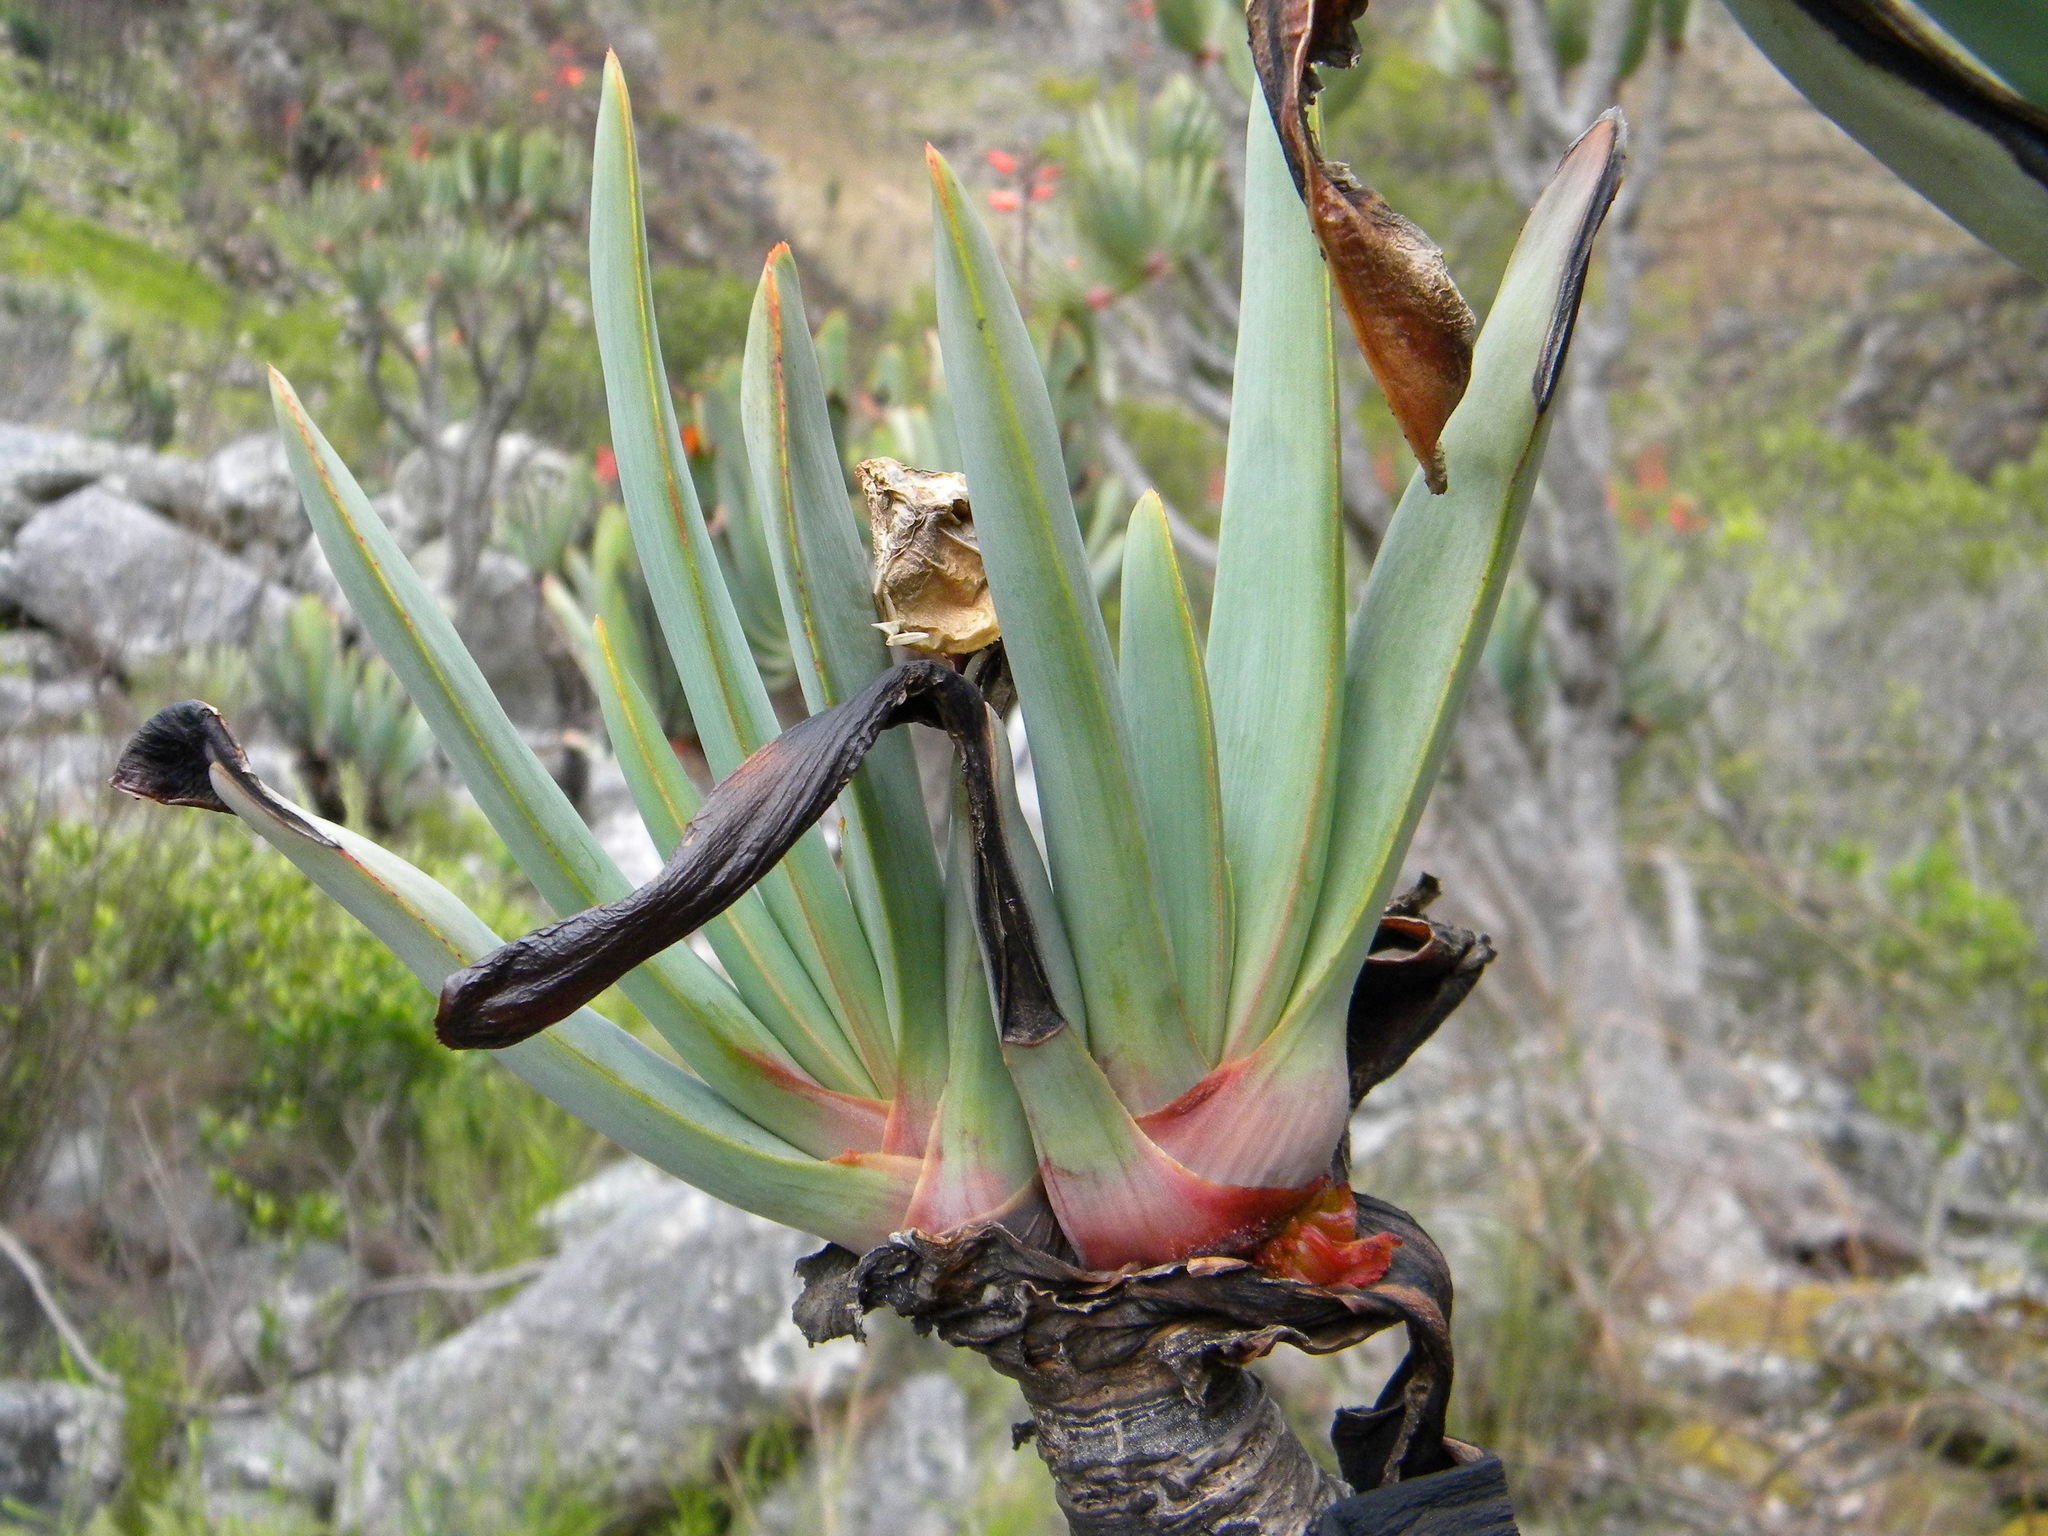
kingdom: Plantae
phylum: Tracheophyta
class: Liliopsida
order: Asparagales
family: Asphodelaceae
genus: Kumara
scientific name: Kumara plicatilis
